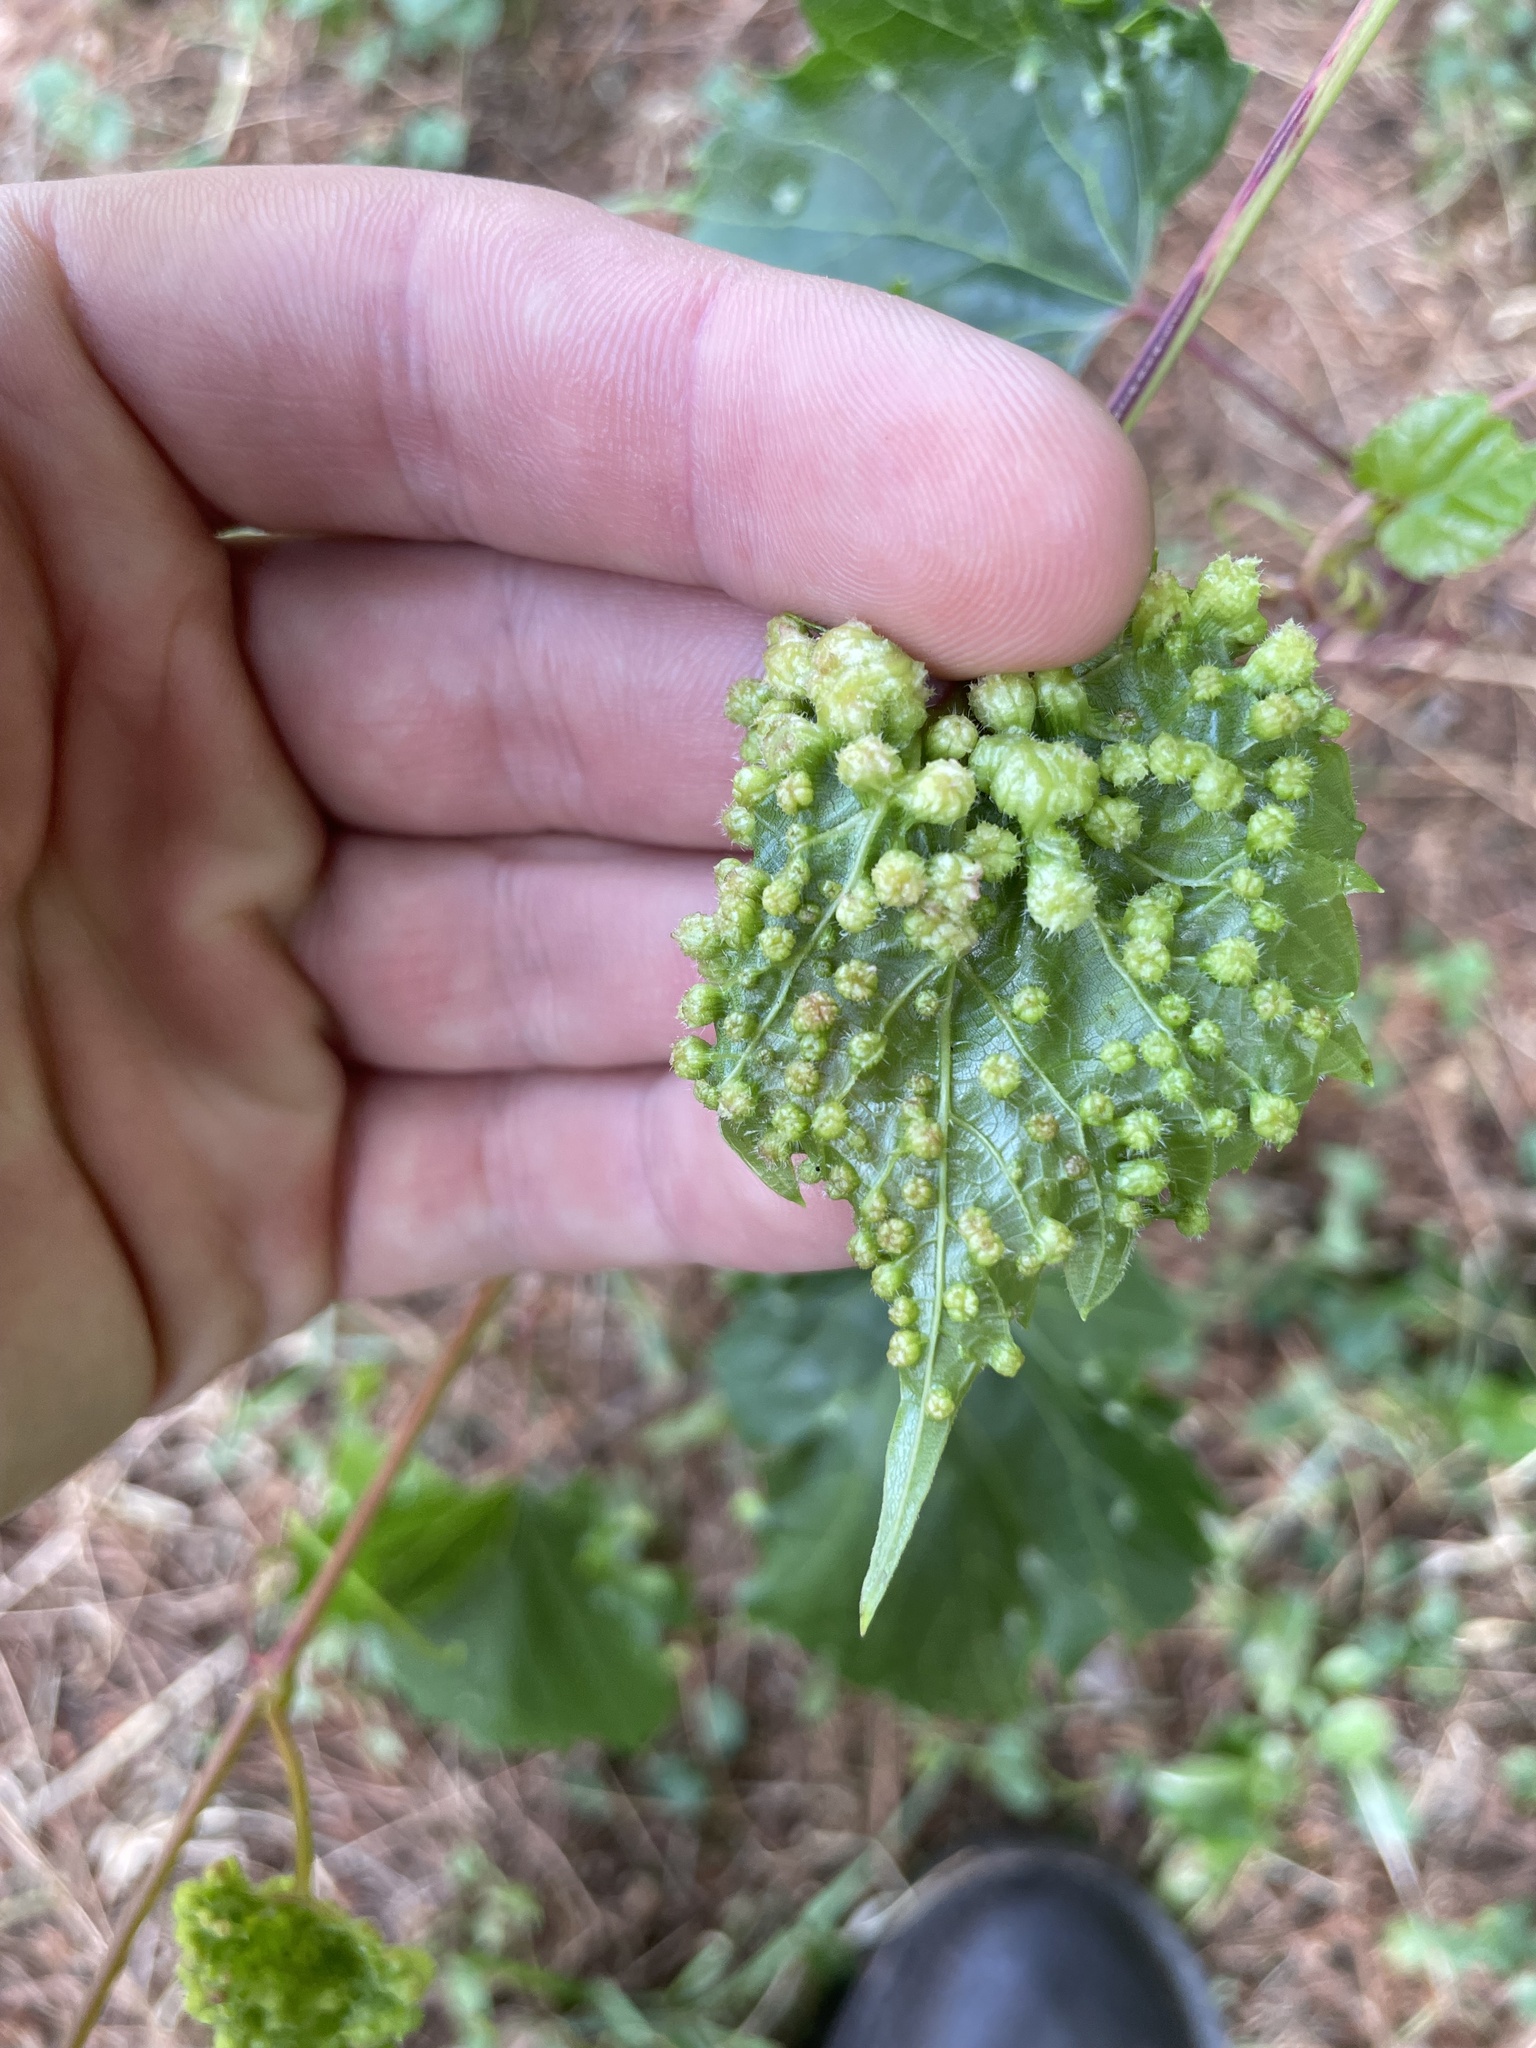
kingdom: Animalia
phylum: Arthropoda
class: Insecta
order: Hemiptera
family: Phylloxeridae
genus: Daktulosphaira
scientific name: Daktulosphaira vitifoliae
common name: Grape phylloxera
